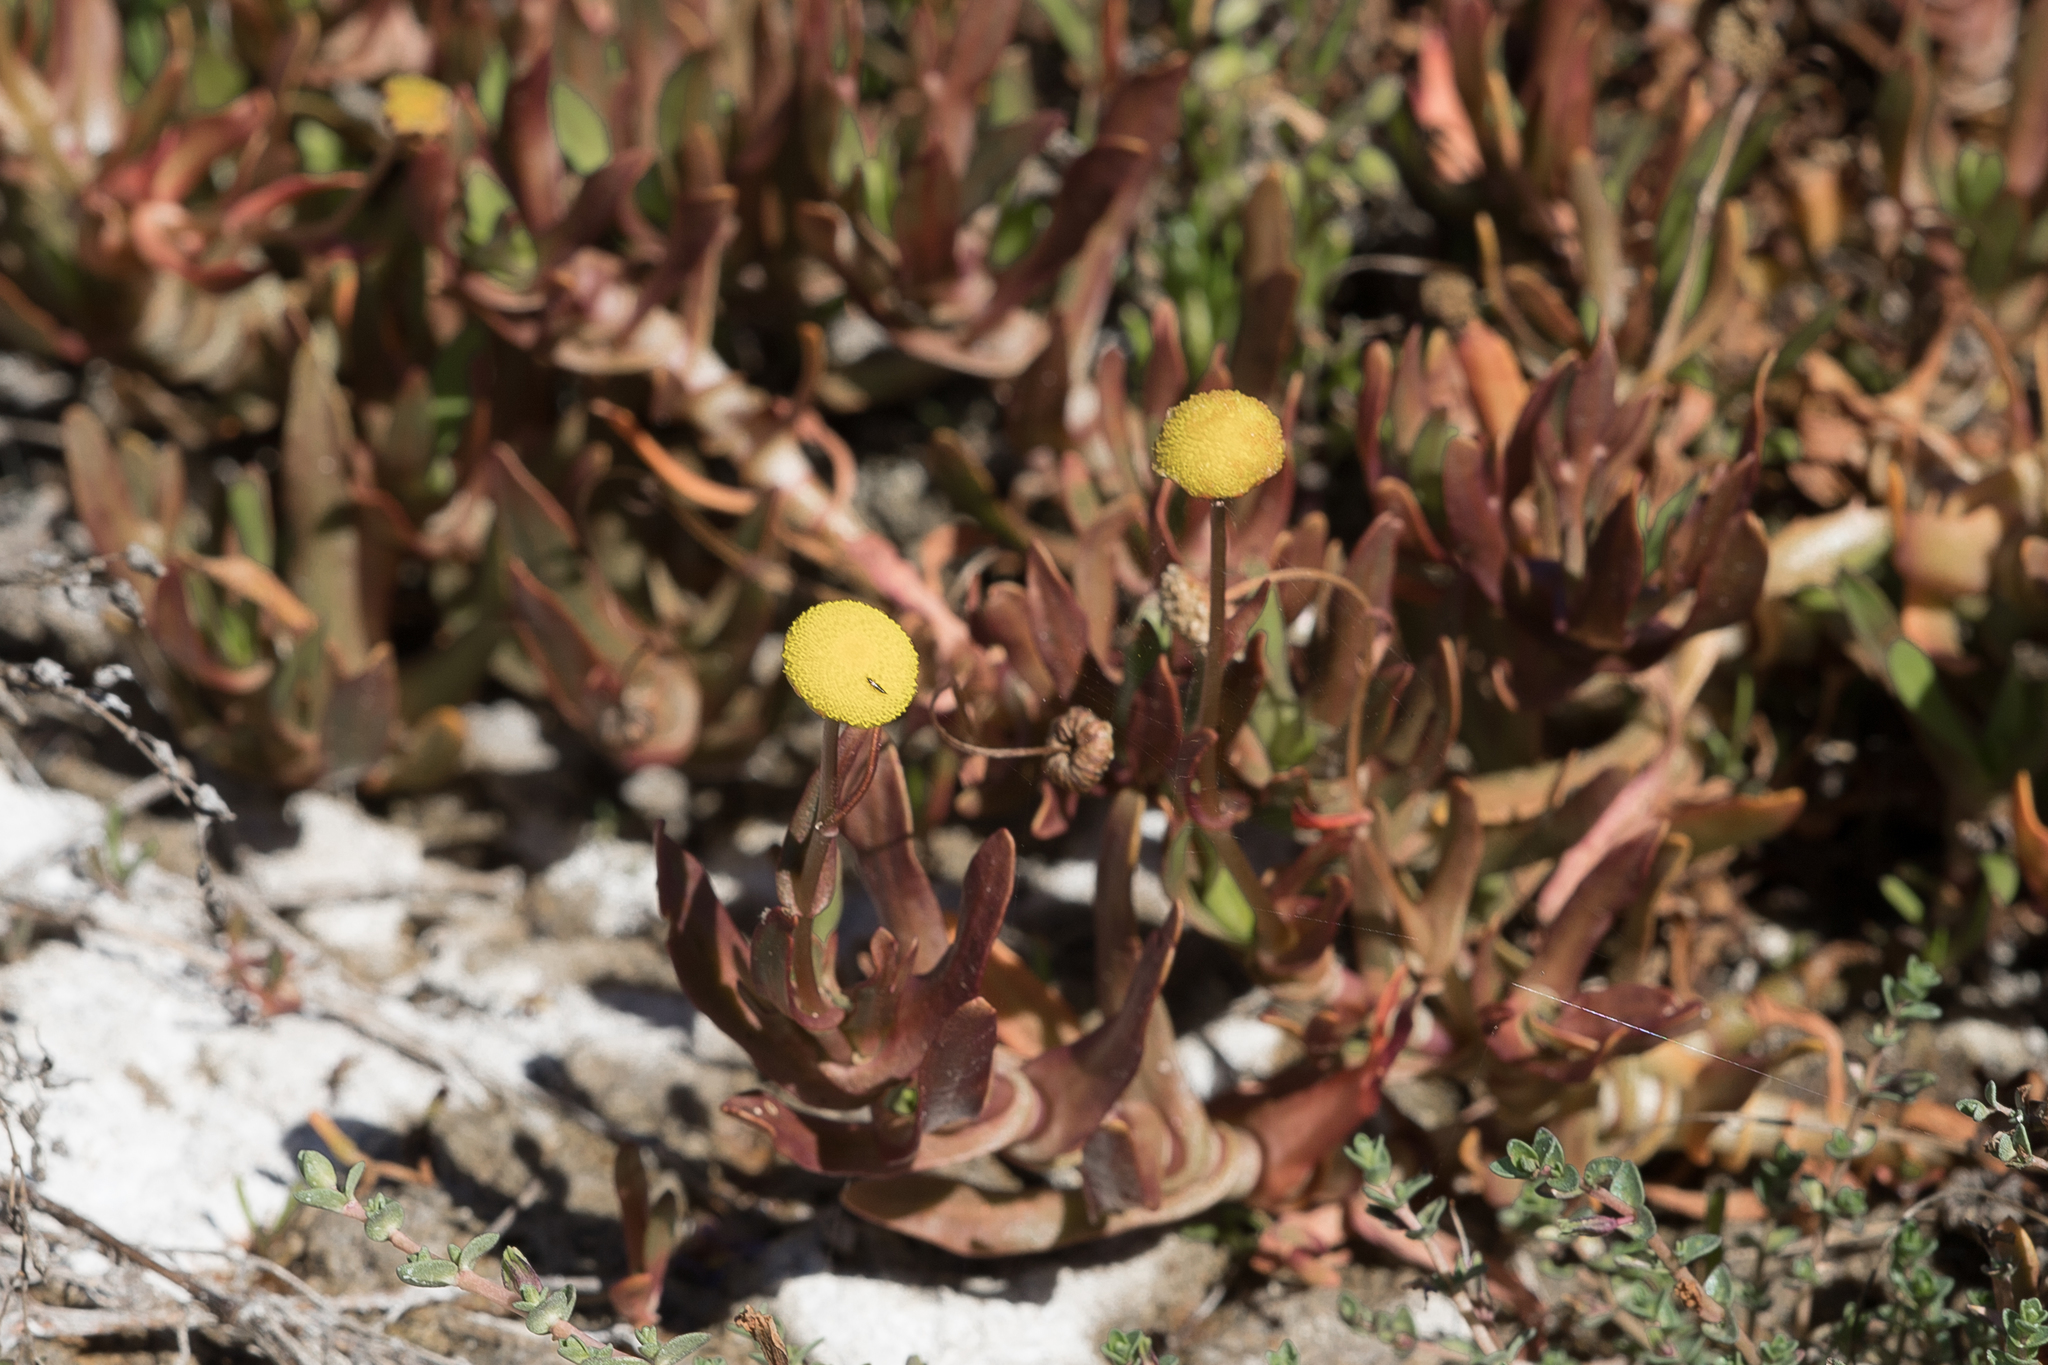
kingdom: Plantae
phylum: Tracheophyta
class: Magnoliopsida
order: Asterales
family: Asteraceae
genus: Cotula
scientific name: Cotula coronopifolia
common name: Buttonweed
